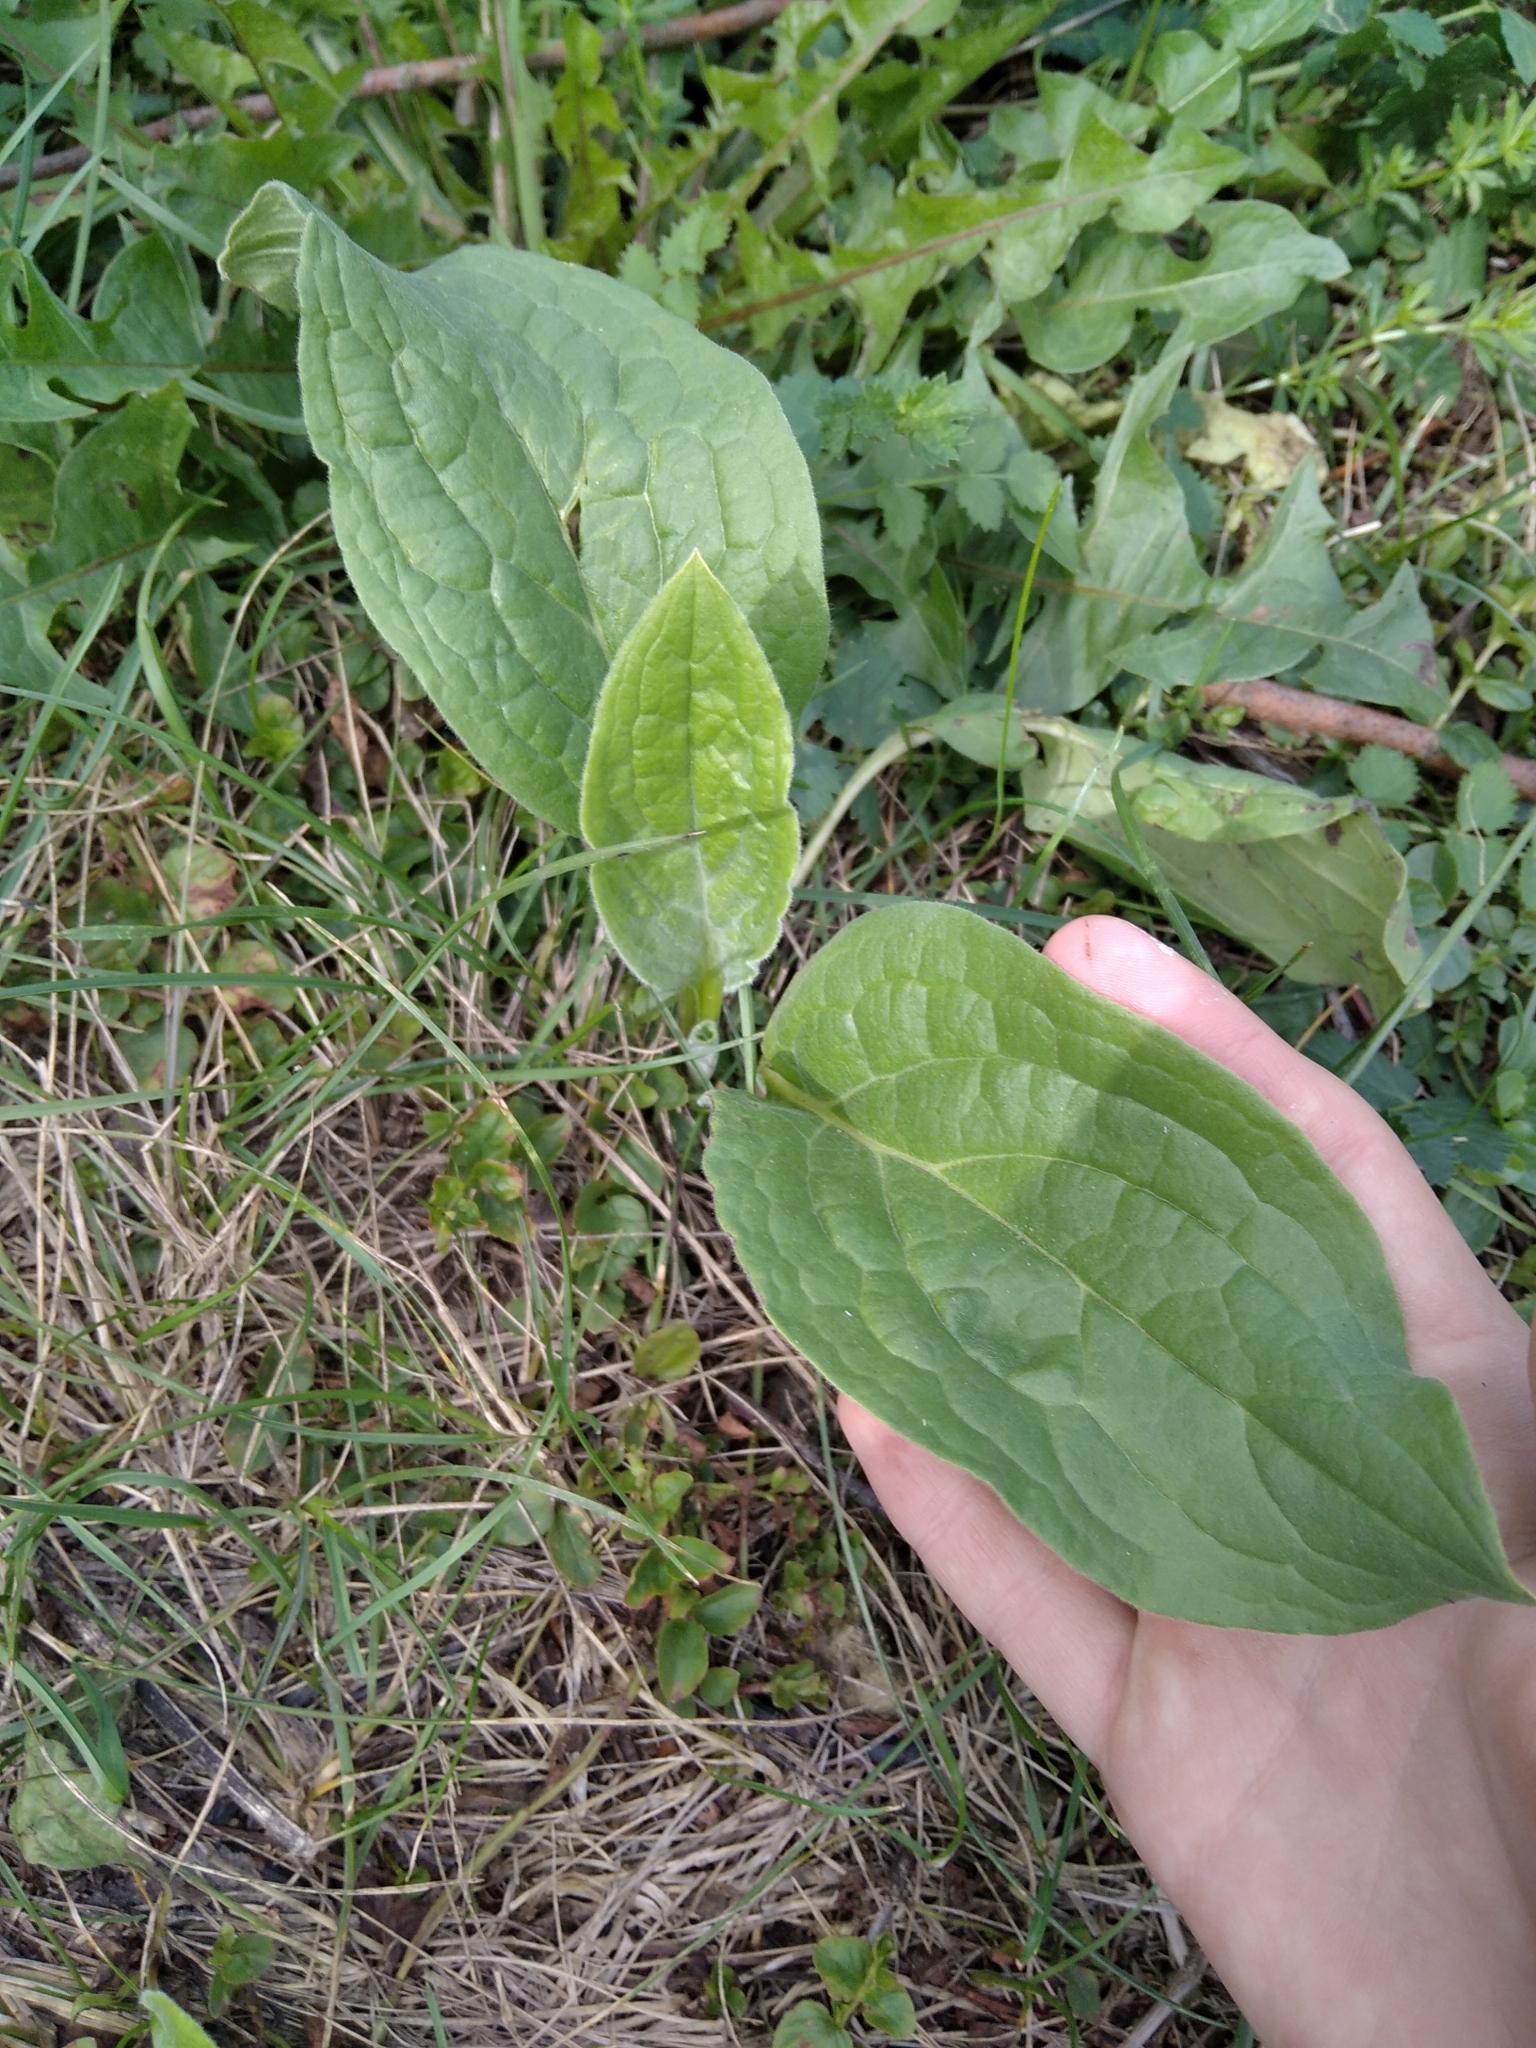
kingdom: Plantae
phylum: Tracheophyta
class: Magnoliopsida
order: Boraginales
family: Boraginaceae
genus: Cynoglossum
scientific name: Cynoglossum officinale
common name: Hound's-tongue
